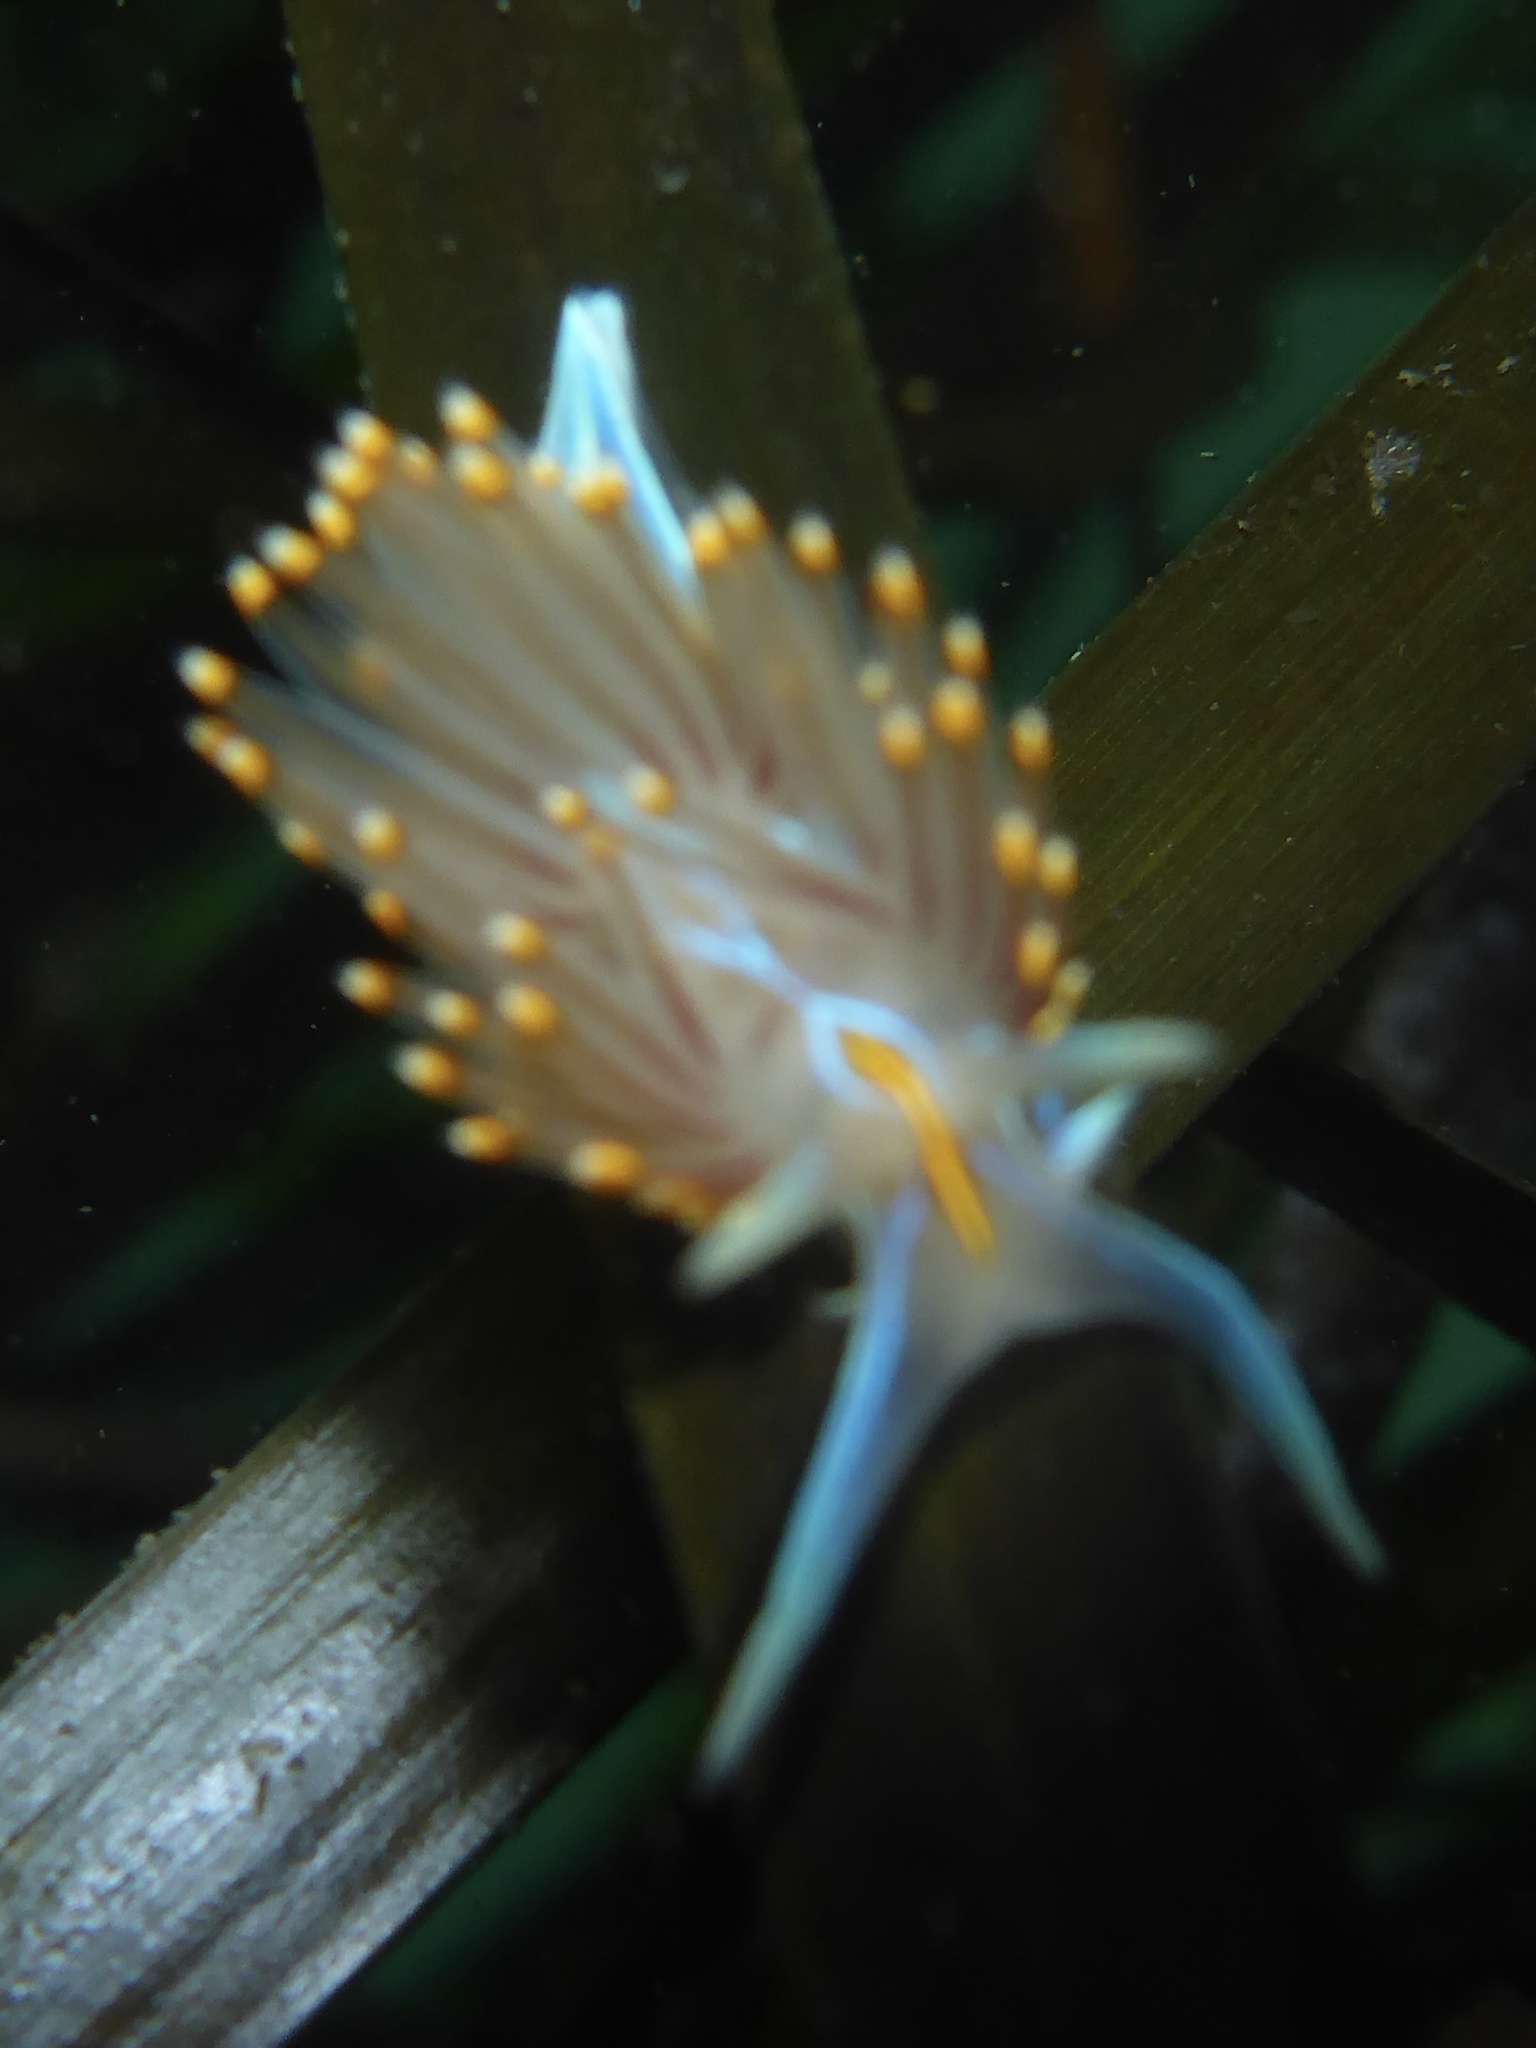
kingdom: Animalia
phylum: Mollusca
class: Gastropoda
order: Nudibranchia
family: Myrrhinidae
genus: Hermissenda
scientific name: Hermissenda opalescens
